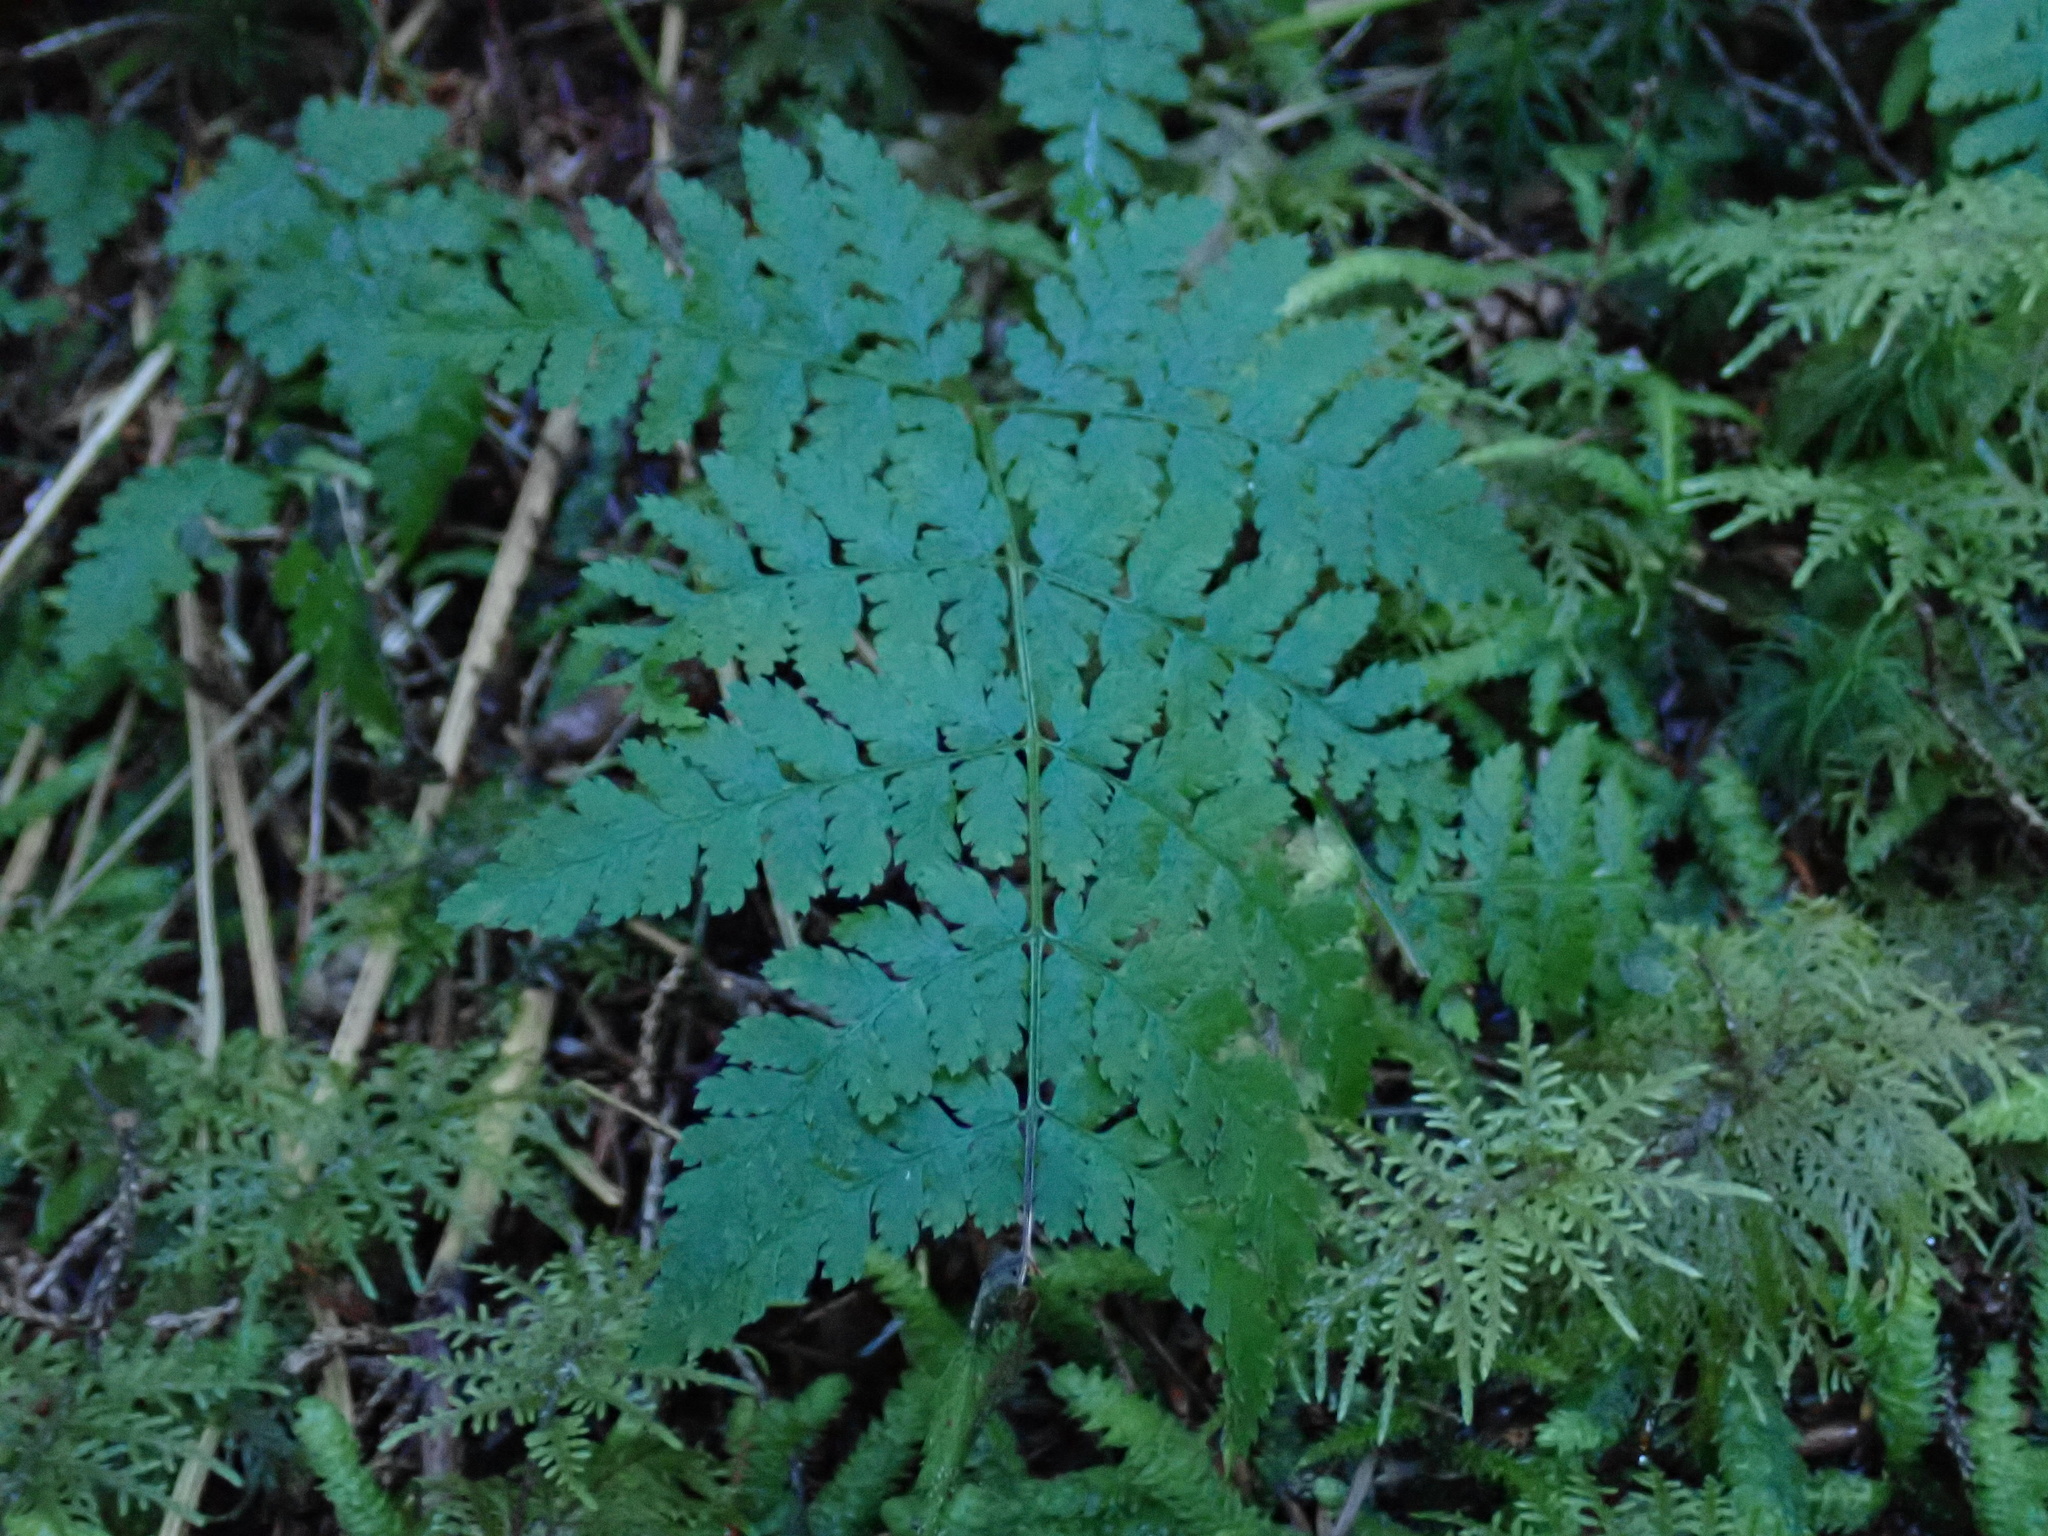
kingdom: Plantae
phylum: Tracheophyta
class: Polypodiopsida
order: Polypodiales
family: Dryopteridaceae
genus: Dryopteris
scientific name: Dryopteris expansa
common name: Northern buckler fern
